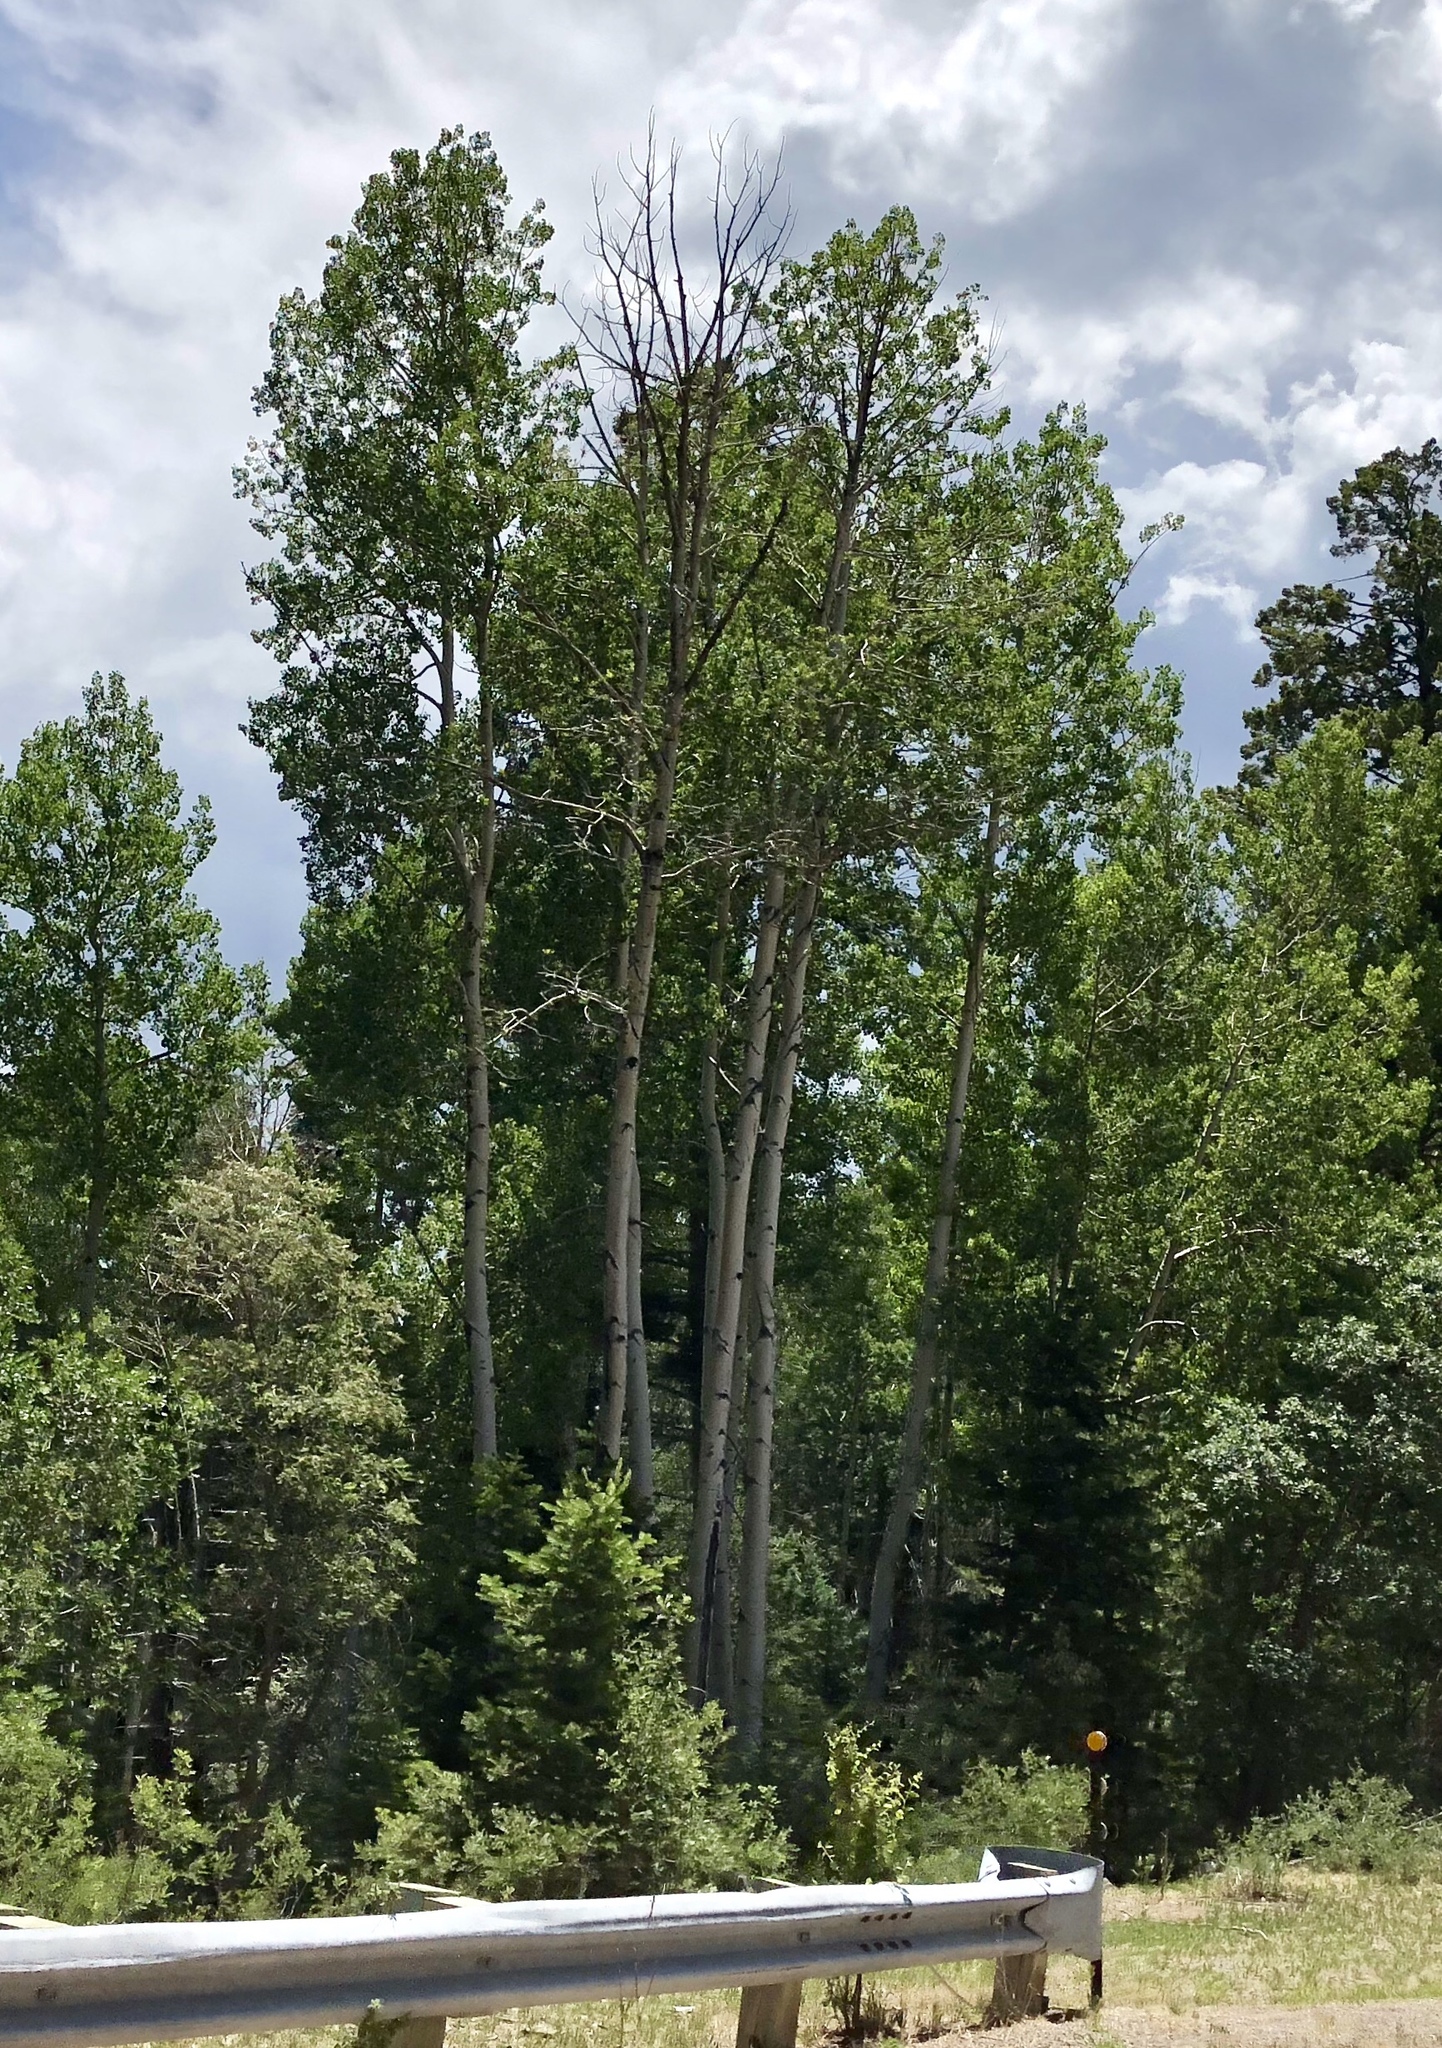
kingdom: Plantae
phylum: Tracheophyta
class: Magnoliopsida
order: Malpighiales
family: Salicaceae
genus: Populus
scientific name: Populus tremuloides
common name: Quaking aspen
